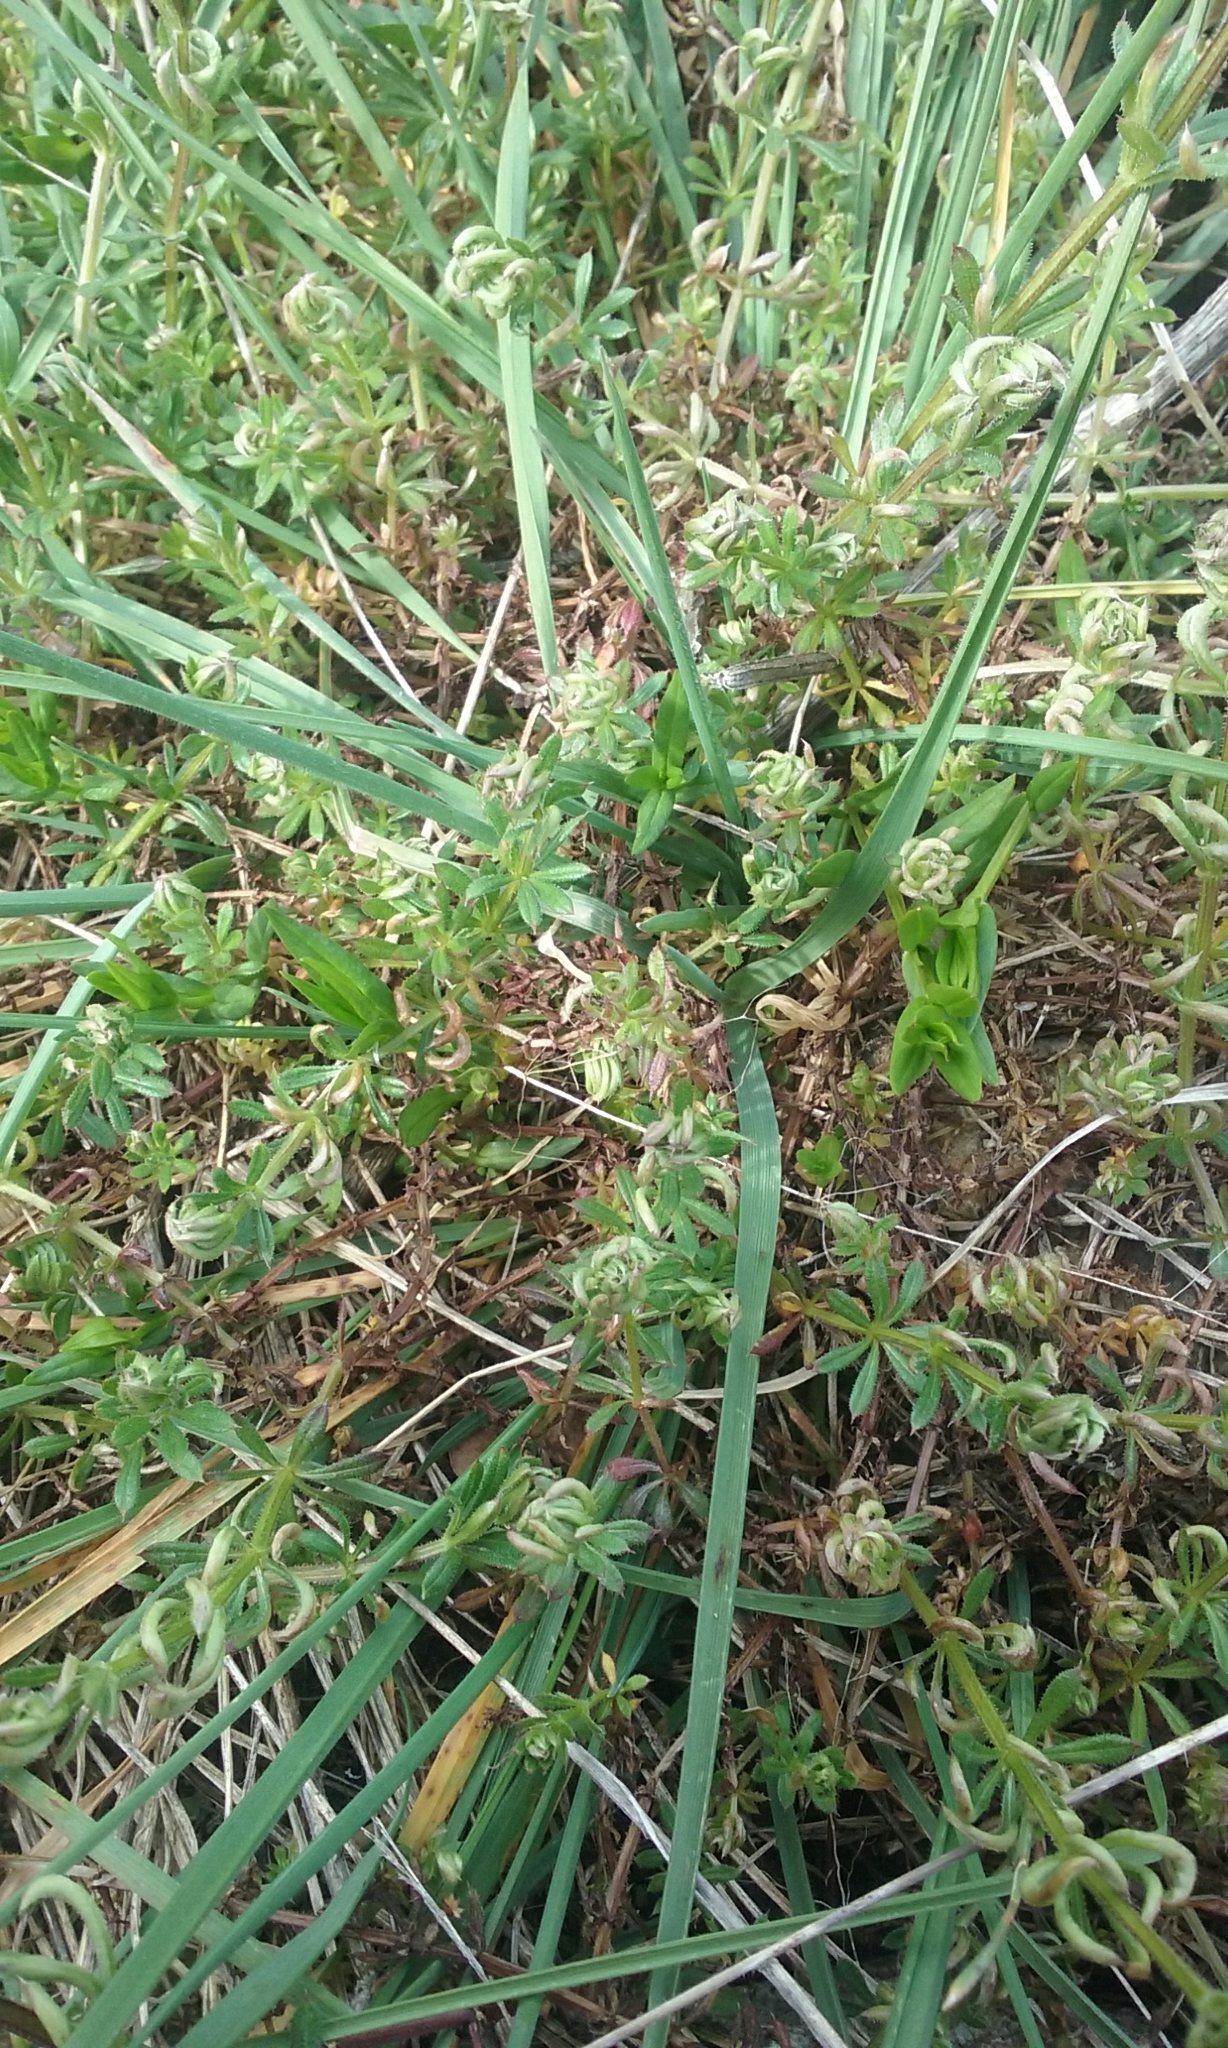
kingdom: Plantae
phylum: Tracheophyta
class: Magnoliopsida
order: Gentianales
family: Rubiaceae
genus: Galium
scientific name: Galium aparine
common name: Cleavers
